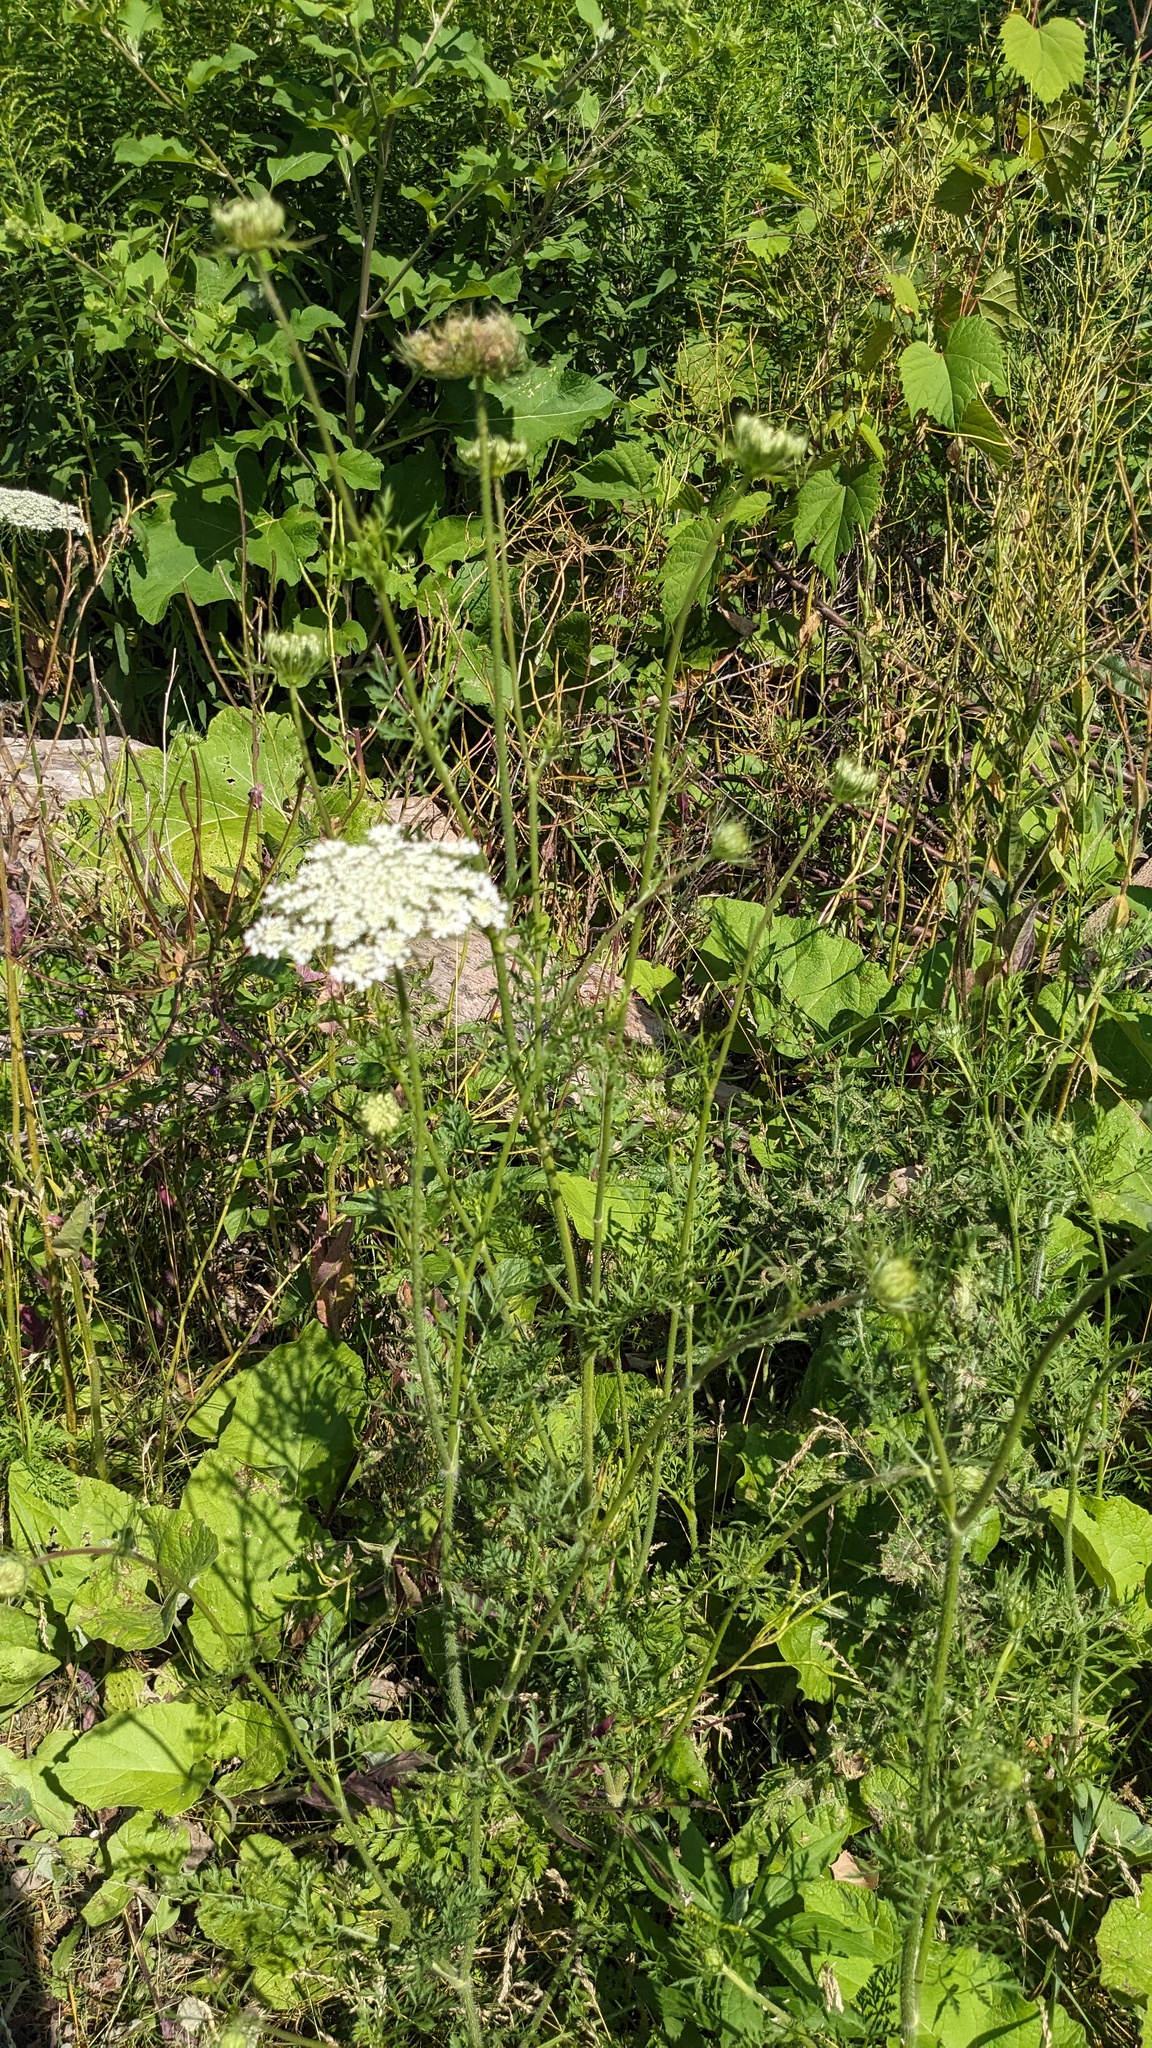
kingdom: Plantae
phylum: Tracheophyta
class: Magnoliopsida
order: Apiales
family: Apiaceae
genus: Daucus
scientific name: Daucus carota
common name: Wild carrot
